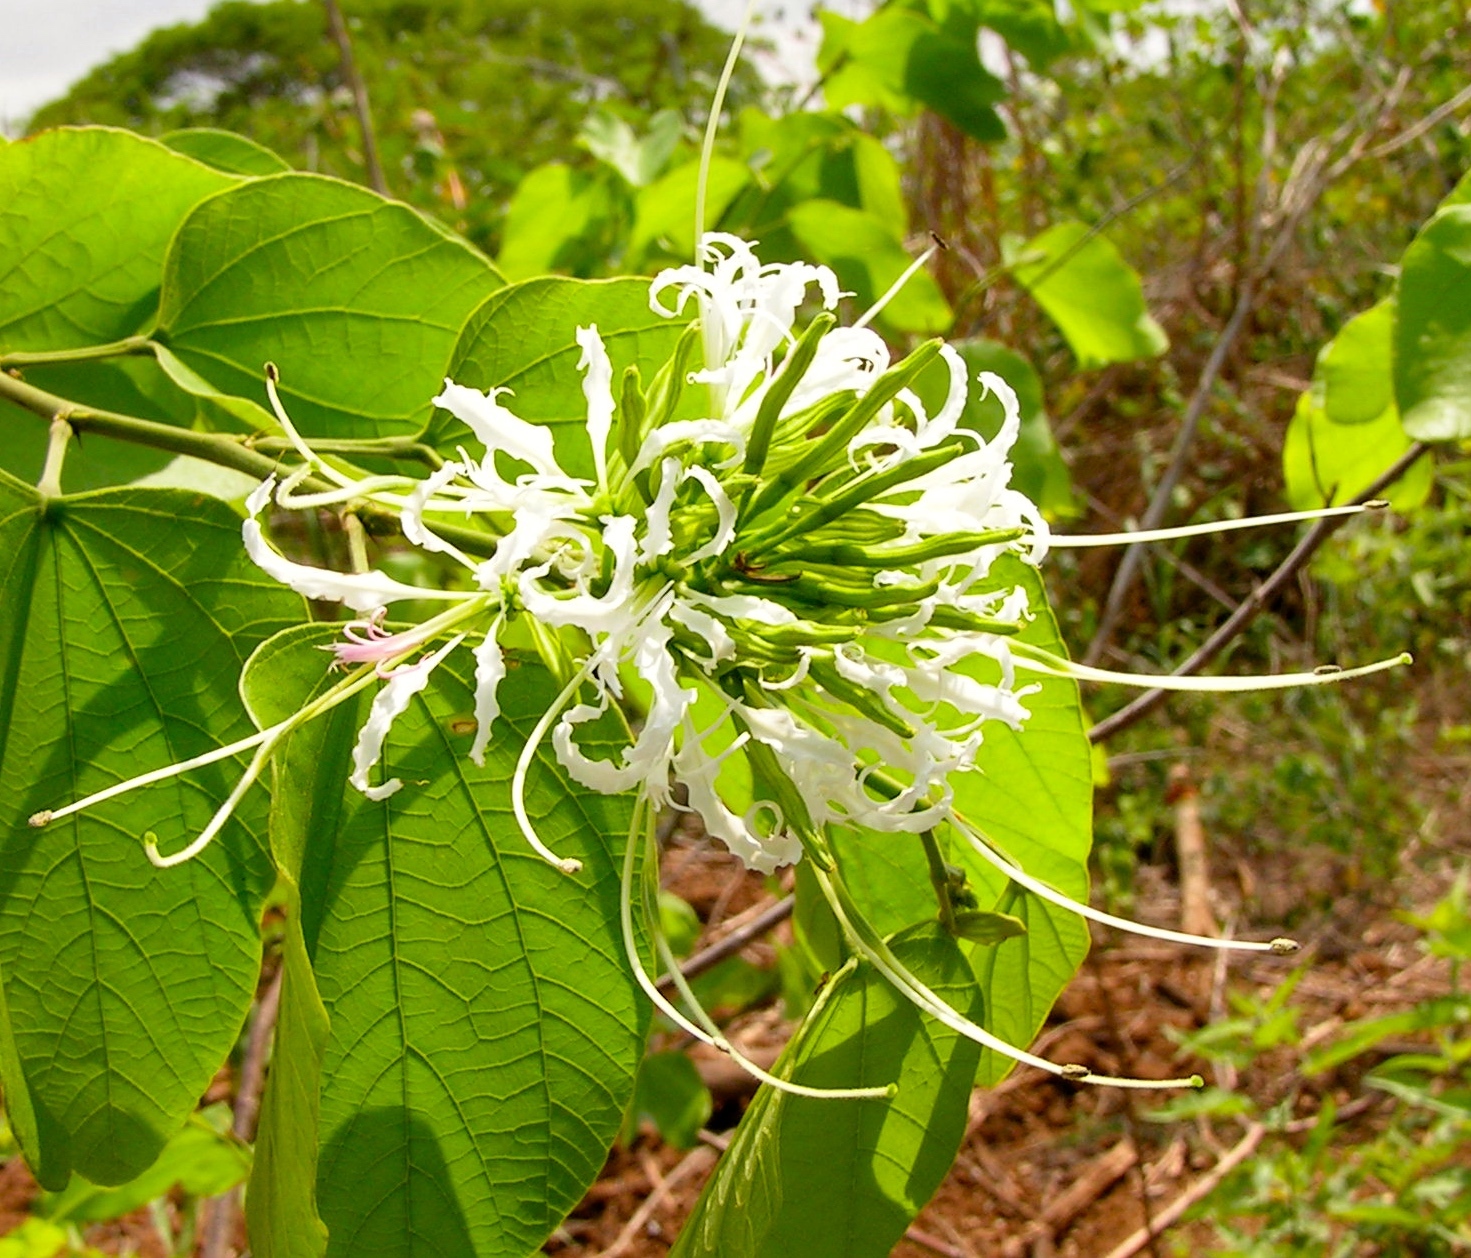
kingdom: Plantae
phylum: Tracheophyta
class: Magnoliopsida
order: Fabales
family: Fabaceae
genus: Bauhinia
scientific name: Bauhinia divaricata
